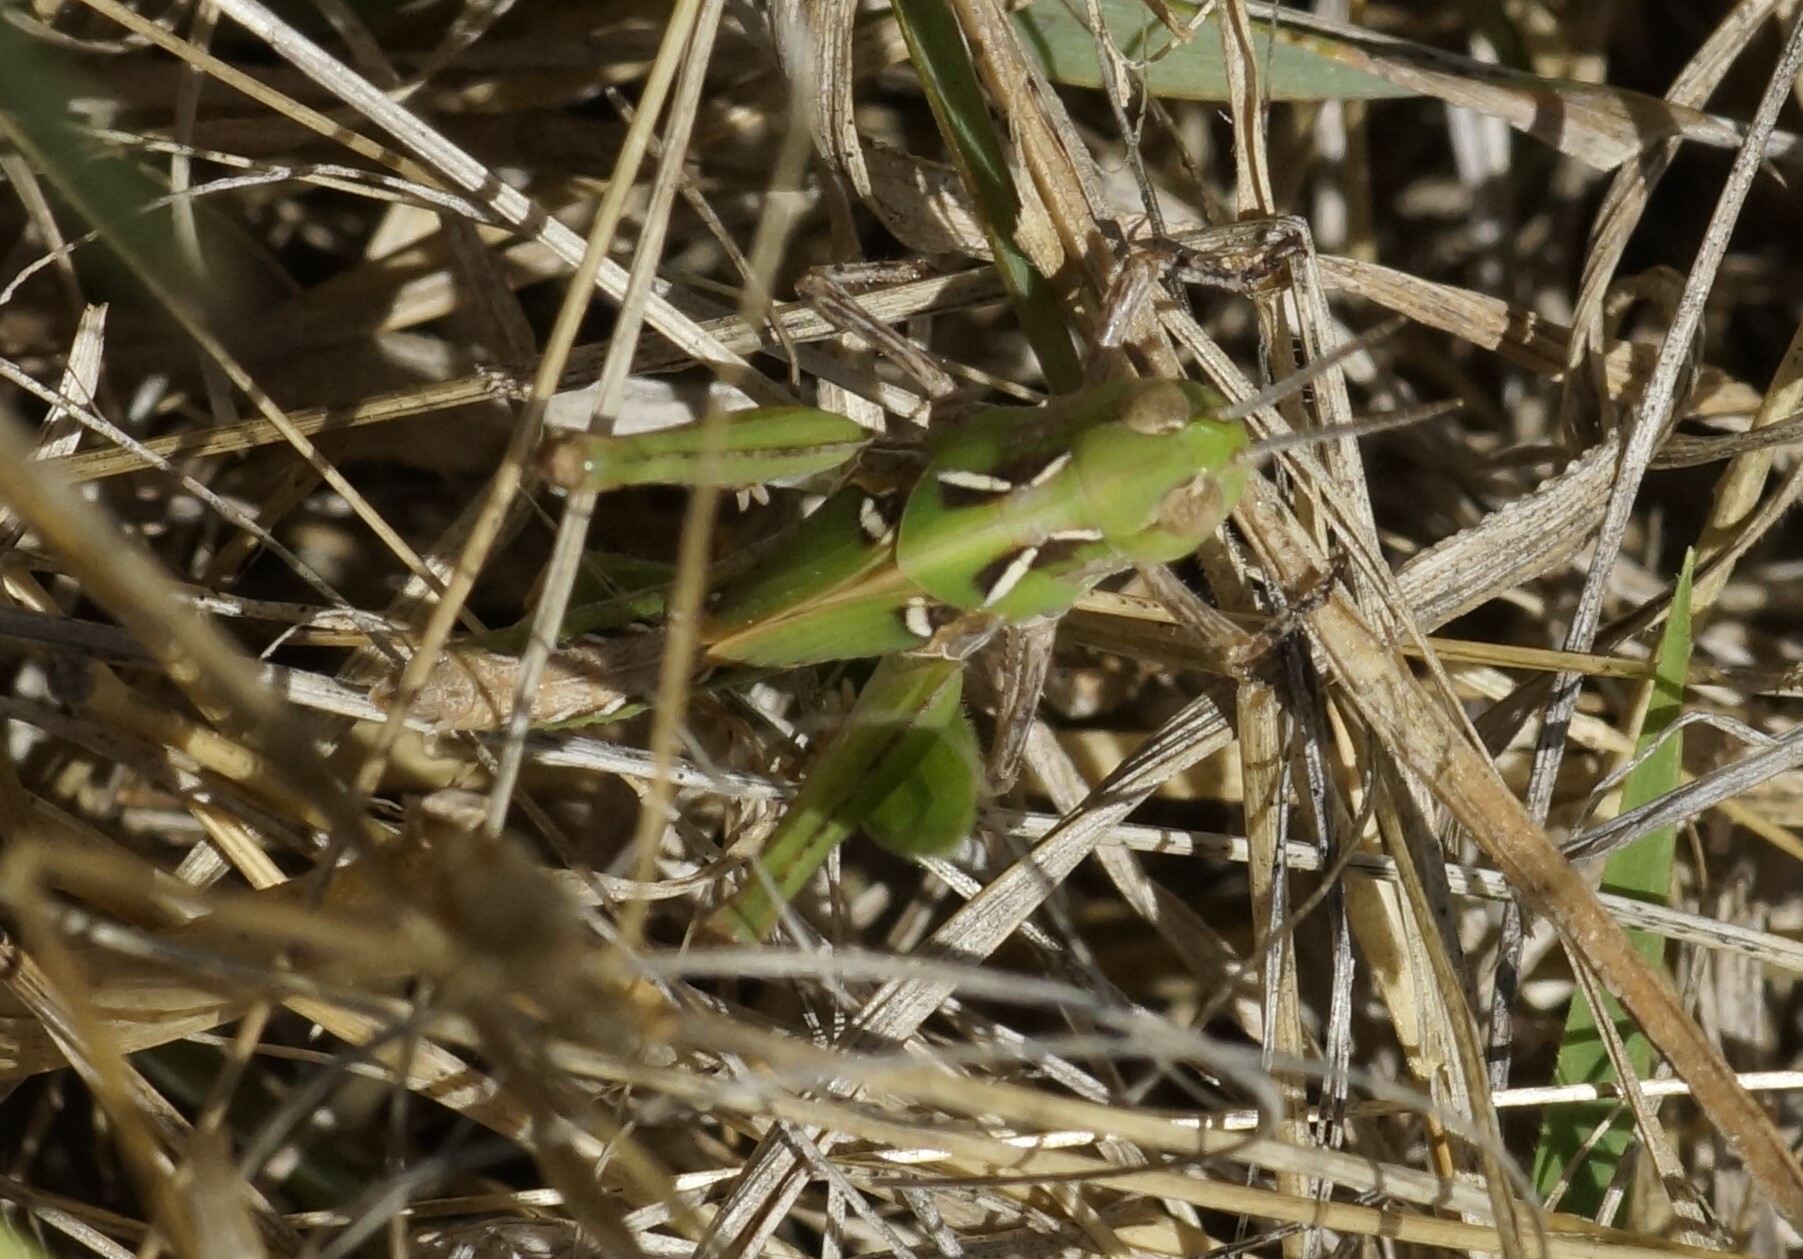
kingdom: Animalia
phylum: Arthropoda
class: Insecta
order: Orthoptera
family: Acrididae
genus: Chortoicetes
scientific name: Chortoicetes terminifera
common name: Australian plague locust
